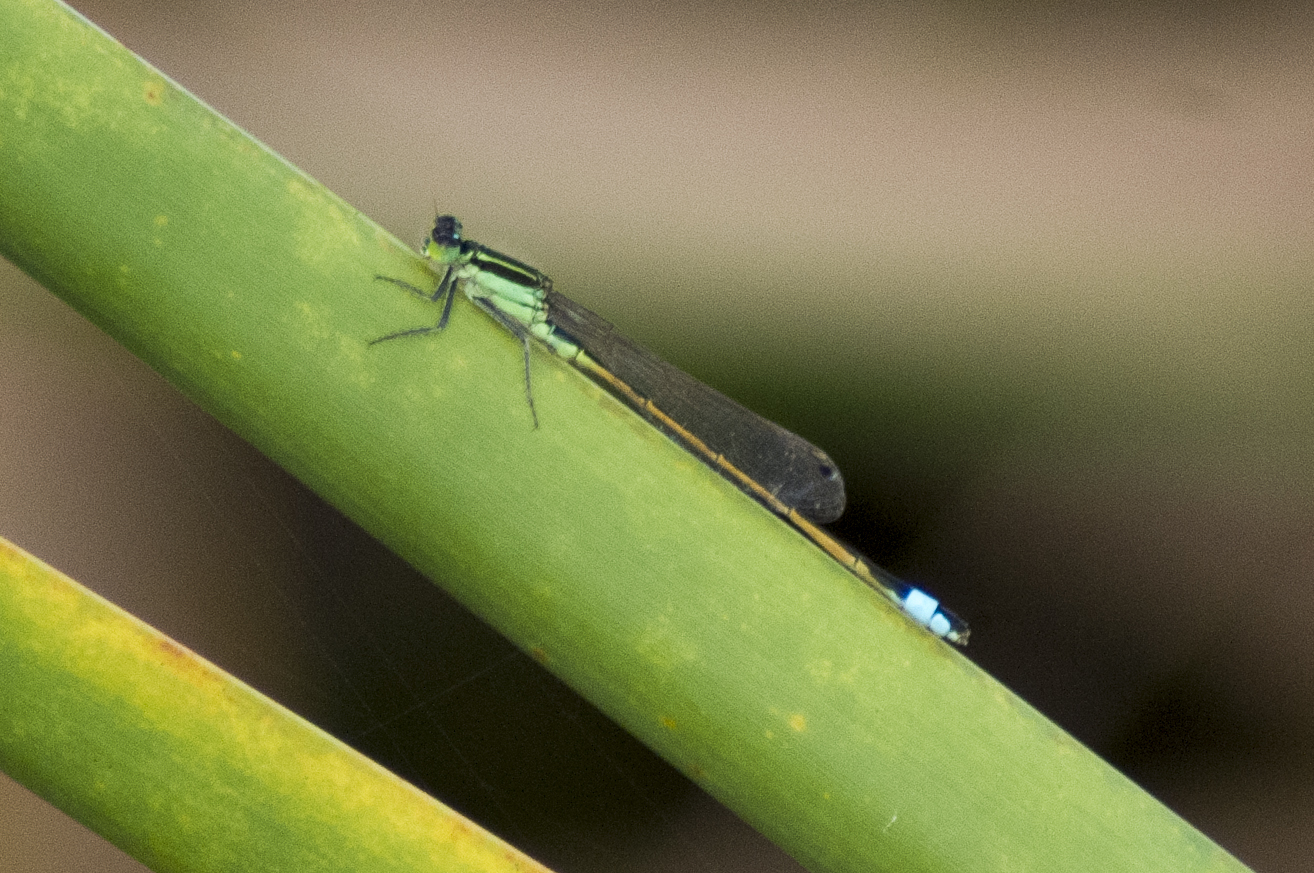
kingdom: Animalia
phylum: Arthropoda
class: Insecta
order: Odonata
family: Coenagrionidae
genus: Ischnura
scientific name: Ischnura ramburii
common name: Rambur's forktail
